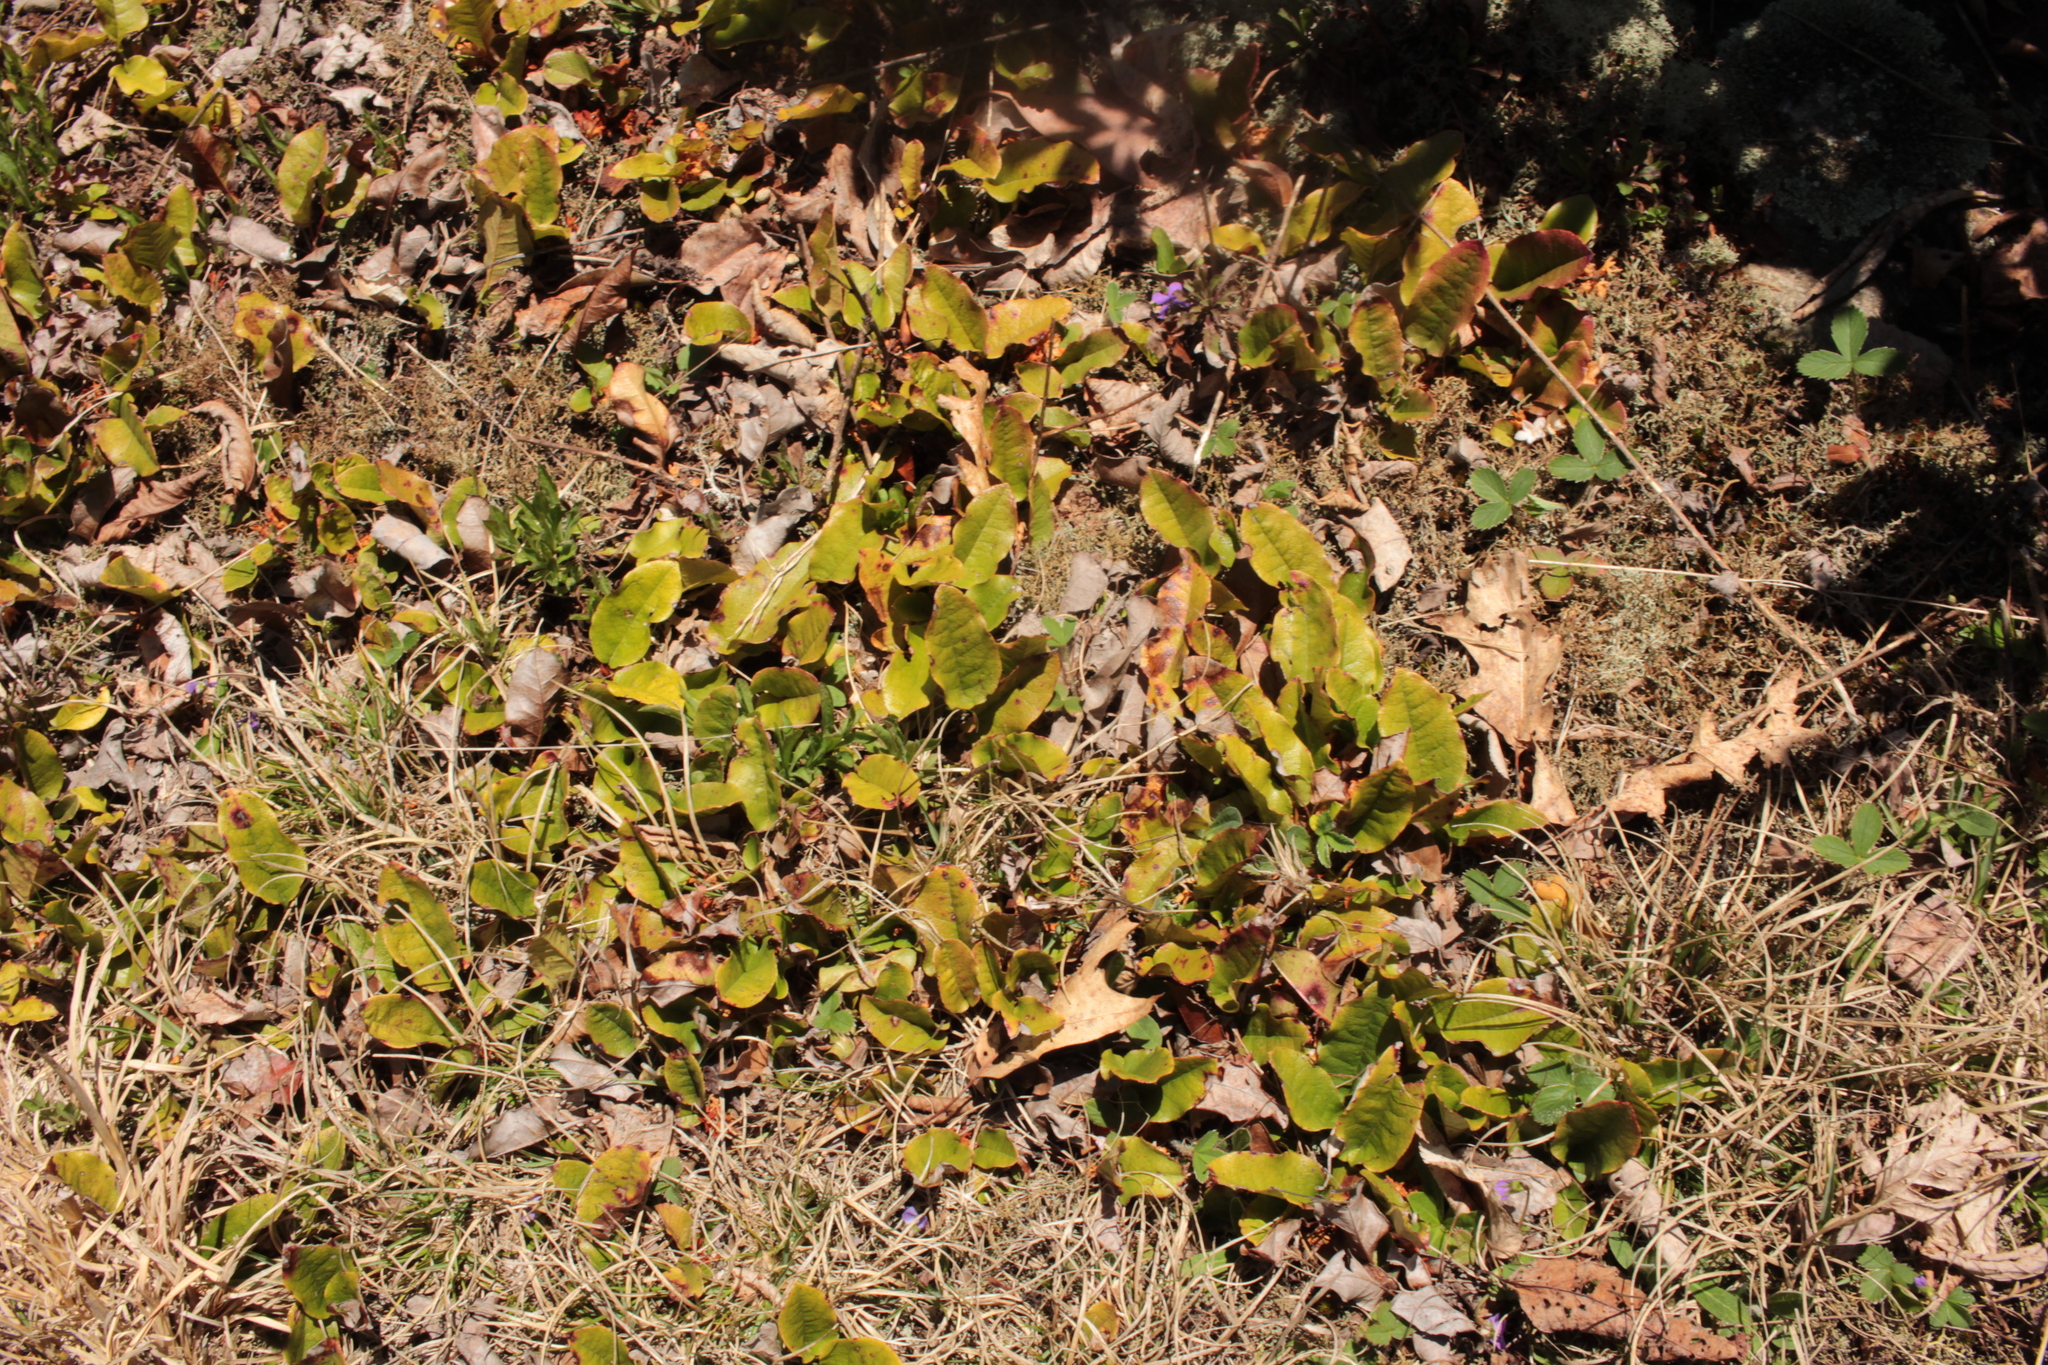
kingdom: Plantae
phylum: Tracheophyta
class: Magnoliopsida
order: Ericales
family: Ericaceae
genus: Epigaea
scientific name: Epigaea repens
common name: Gravelroot
